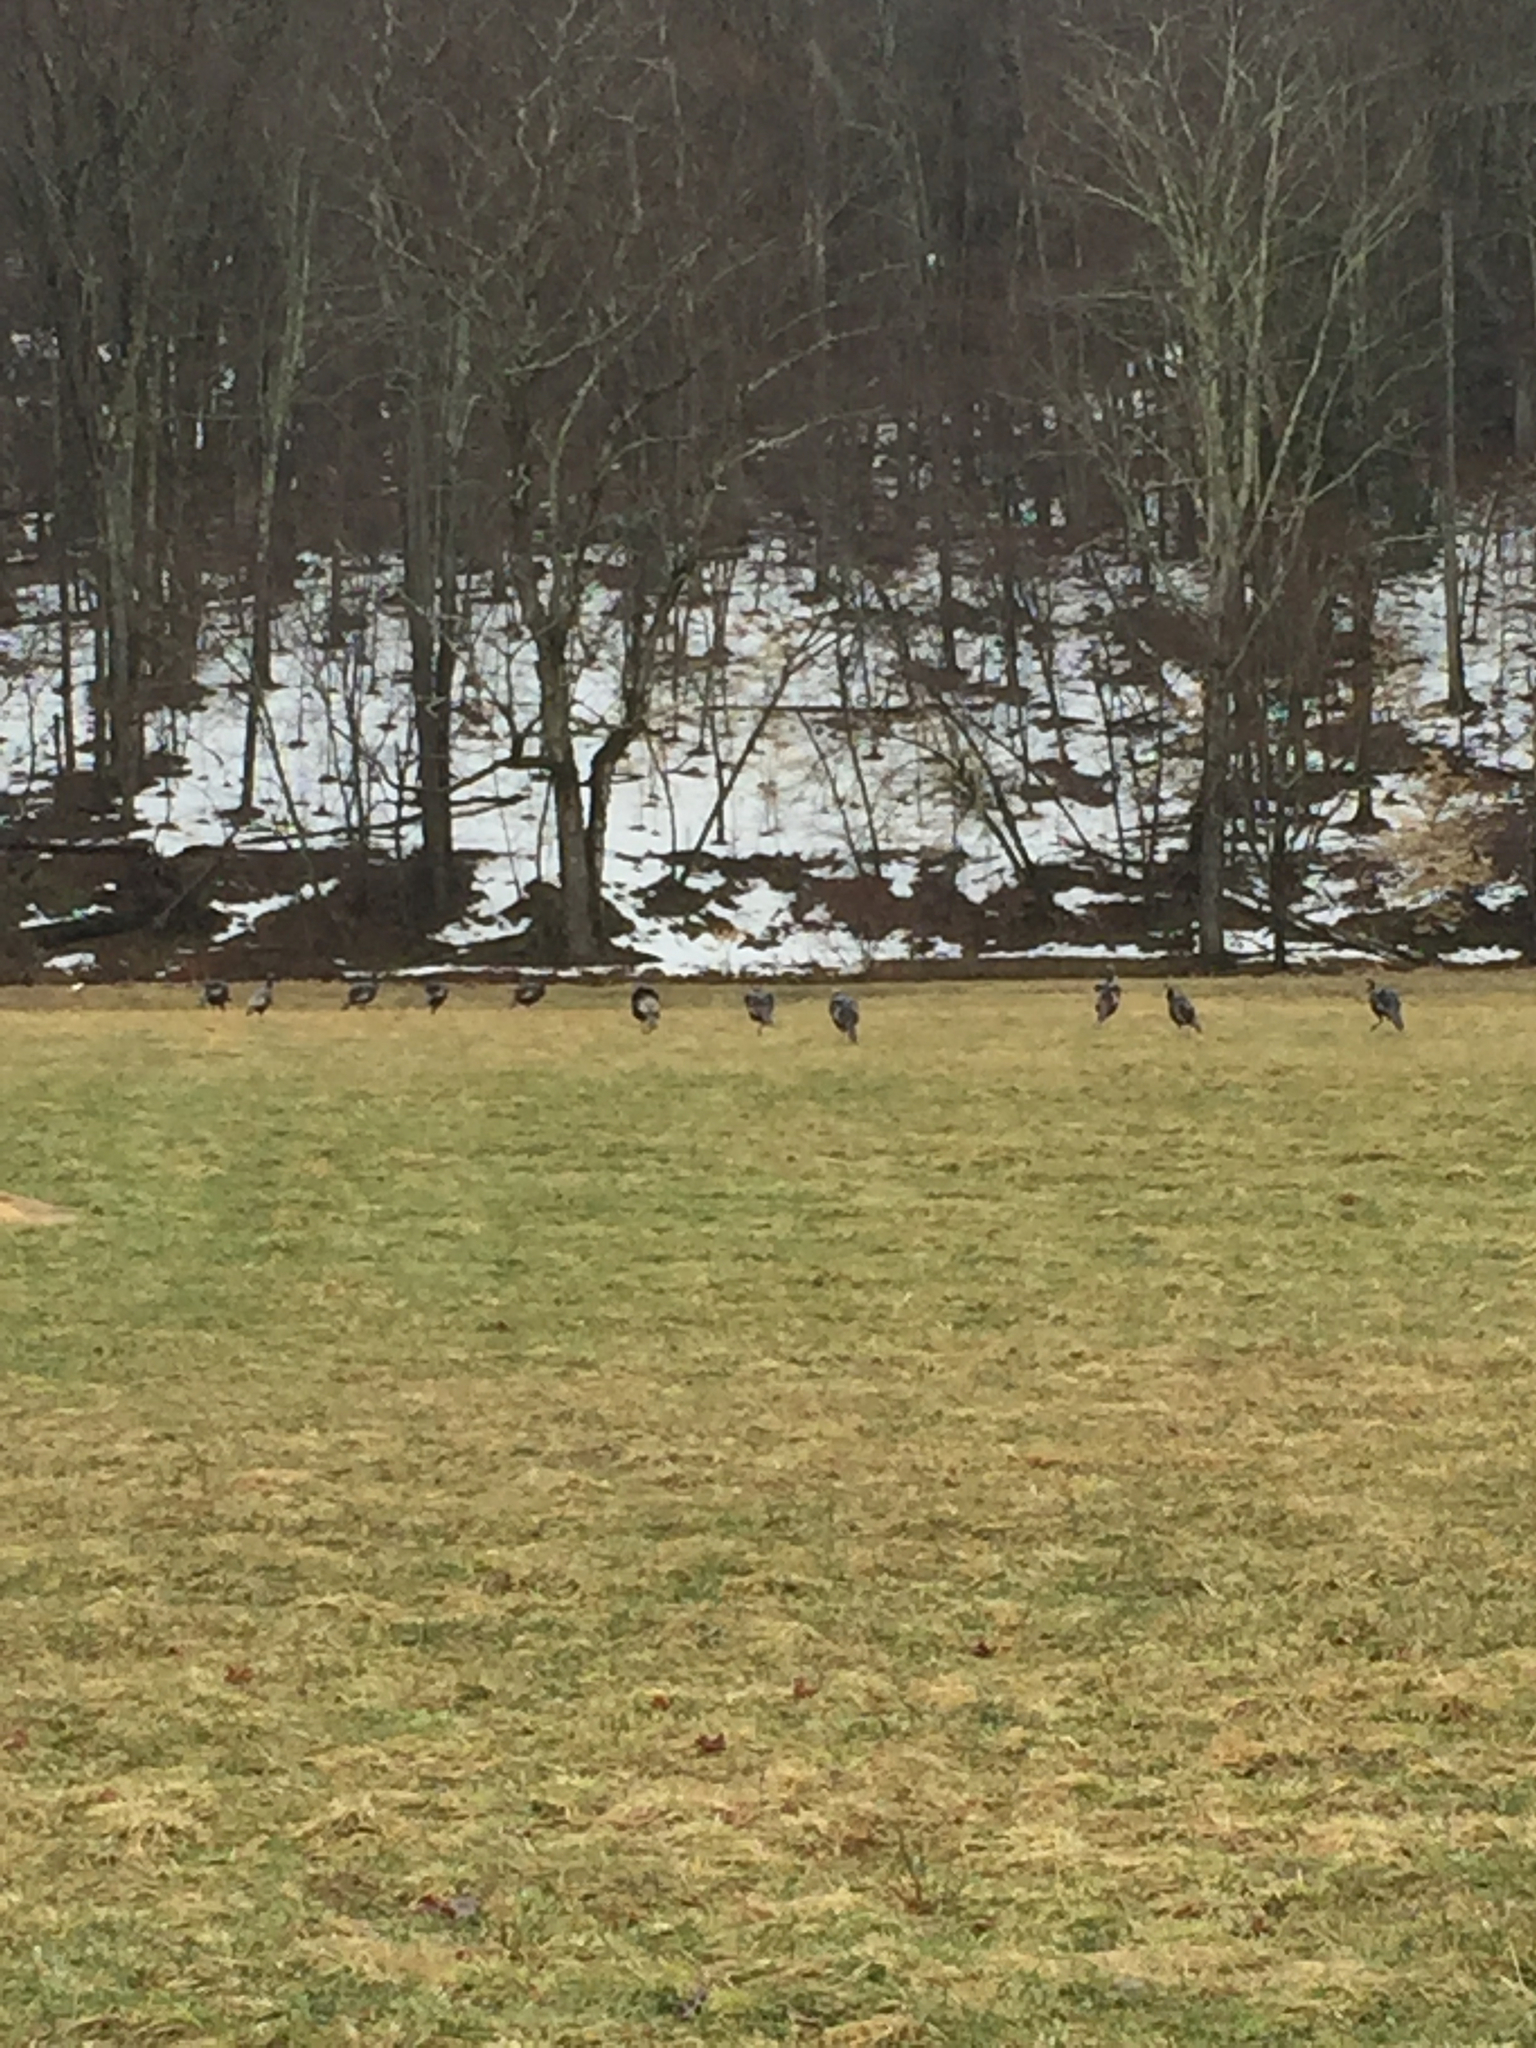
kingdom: Animalia
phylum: Chordata
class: Aves
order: Galliformes
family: Phasianidae
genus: Meleagris
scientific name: Meleagris gallopavo
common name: Wild turkey
